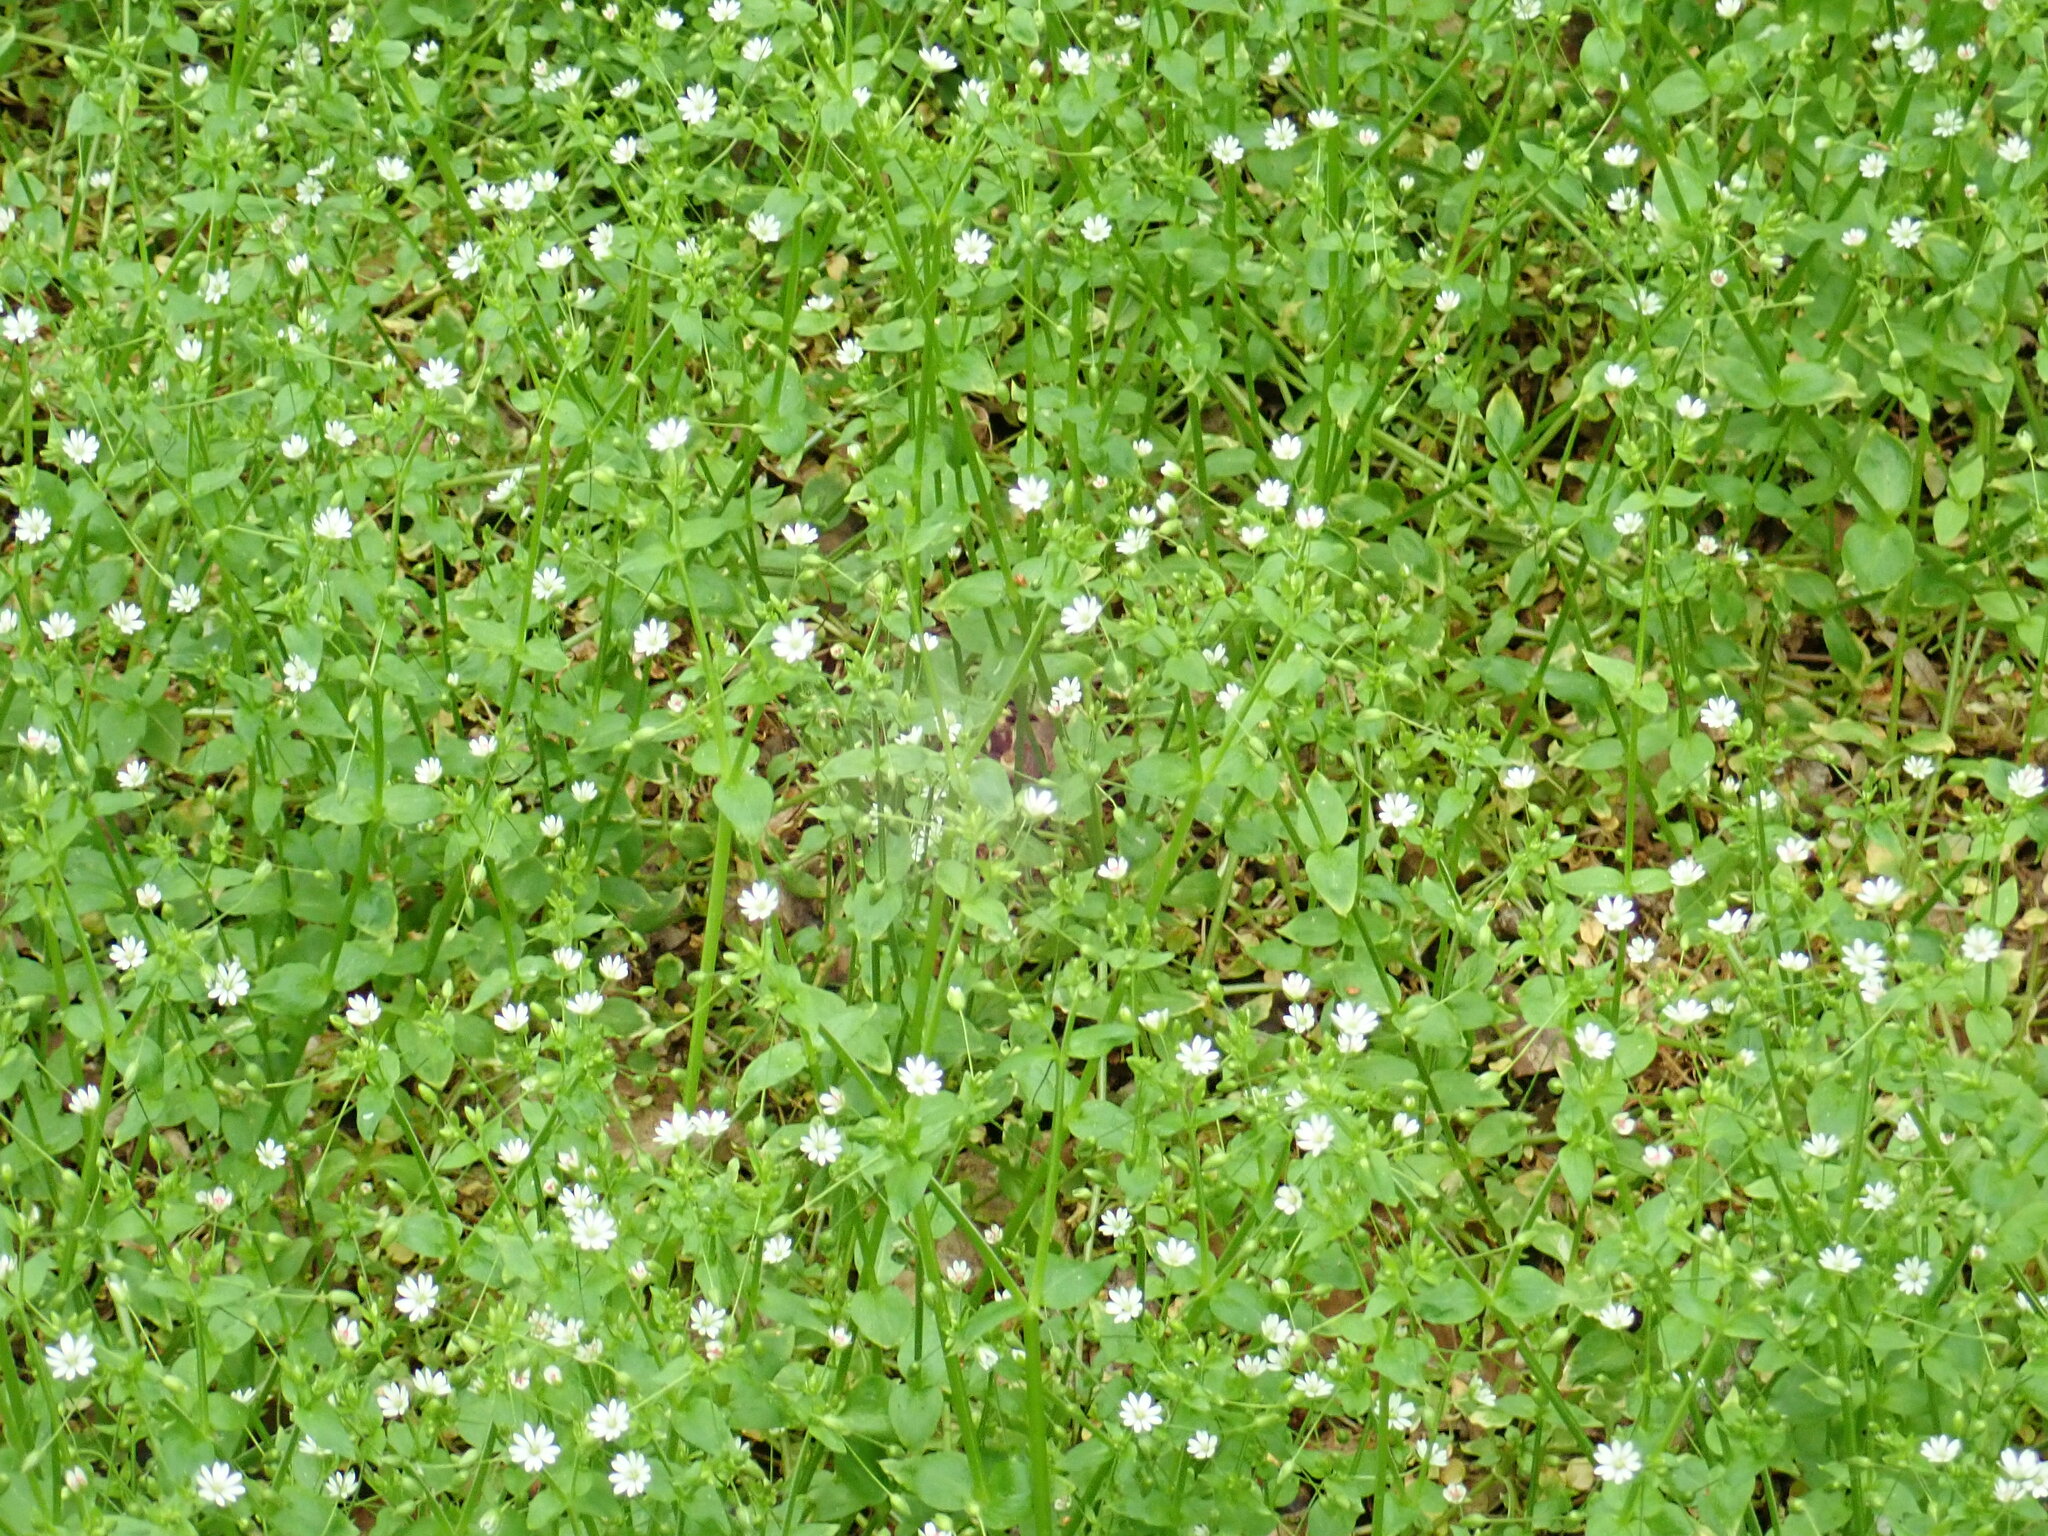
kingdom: Plantae
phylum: Tracheophyta
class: Magnoliopsida
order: Caryophyllales
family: Caryophyllaceae
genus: Stellaria
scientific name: Stellaria neglecta
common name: Greater chickweed
